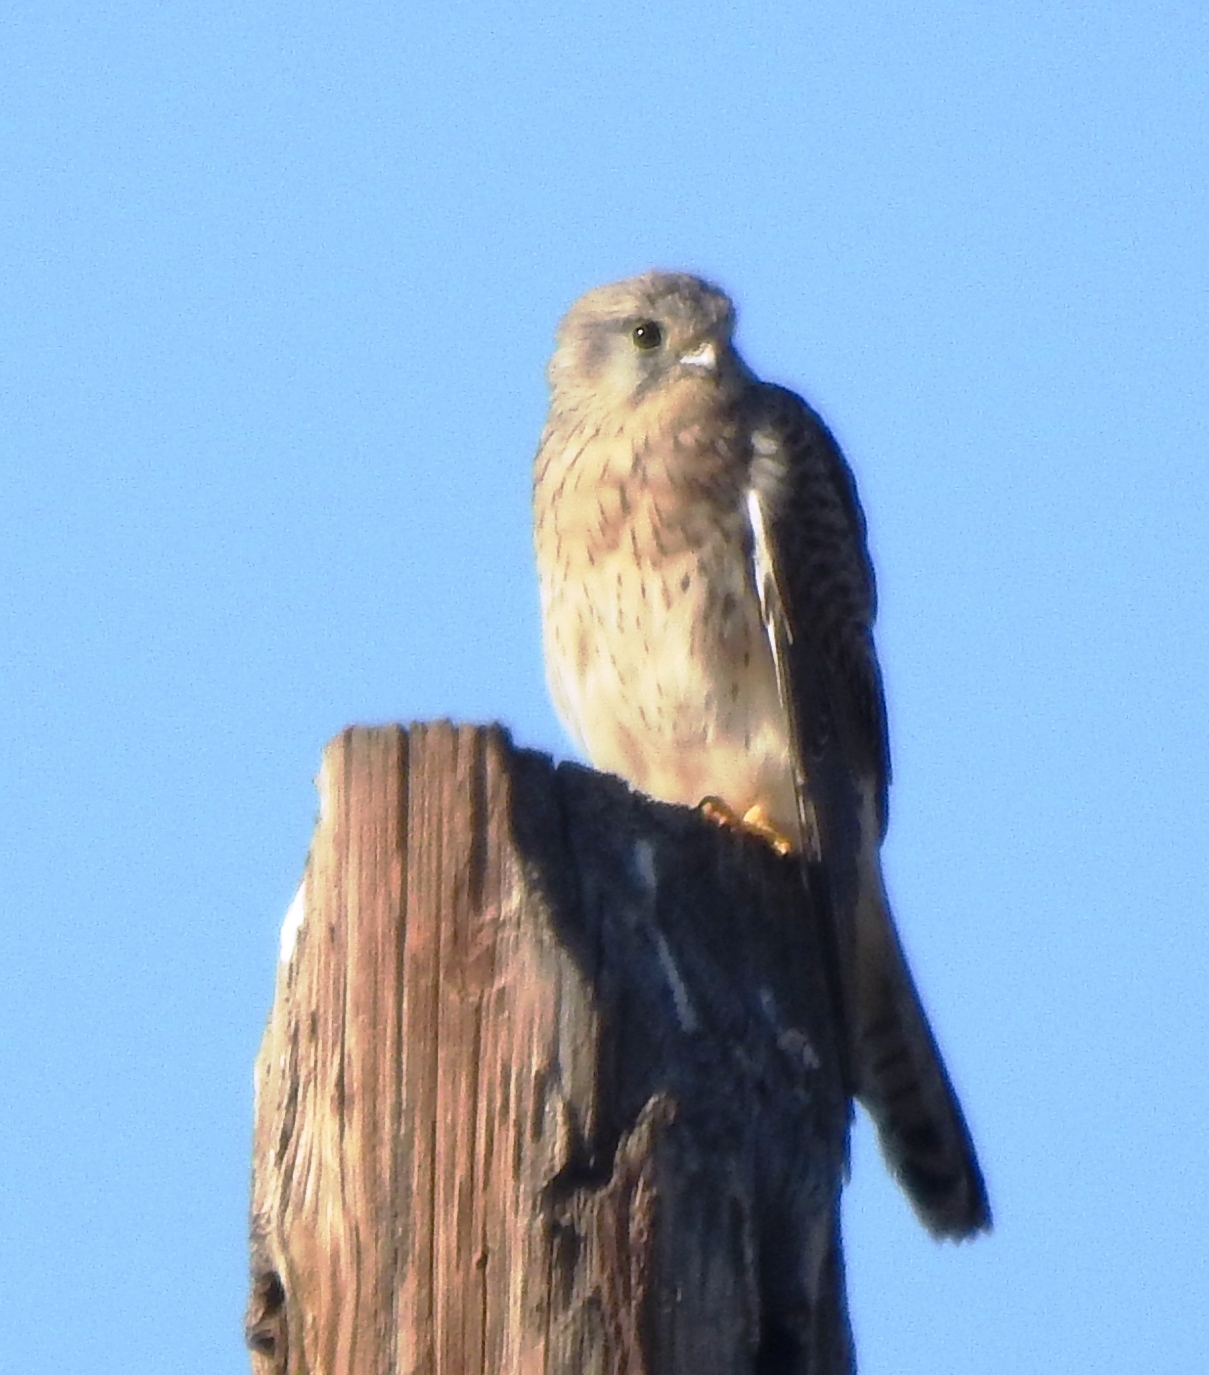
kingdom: Animalia
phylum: Chordata
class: Aves
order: Falconiformes
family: Falconidae
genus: Falco
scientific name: Falco tinnunculus
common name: Common kestrel
